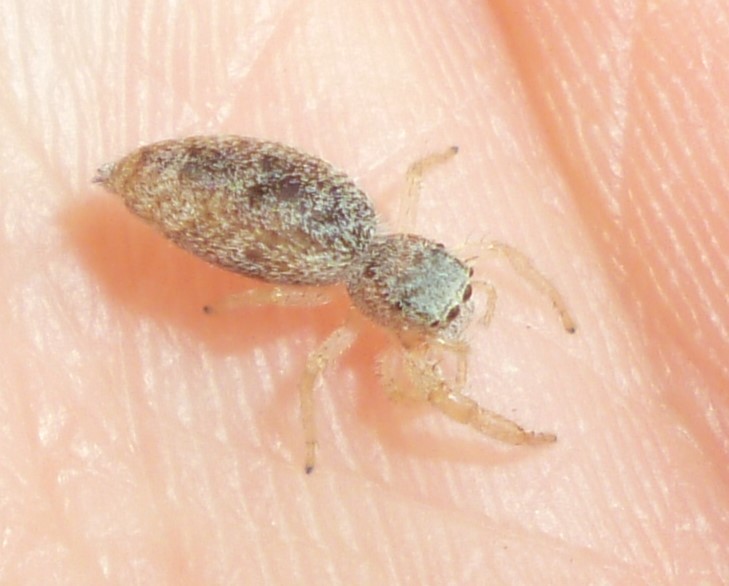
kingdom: Animalia
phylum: Arthropoda
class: Arachnida
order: Araneae
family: Salticidae
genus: Hentzia
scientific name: Hentzia mitrata
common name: White-jawed jumping spider
